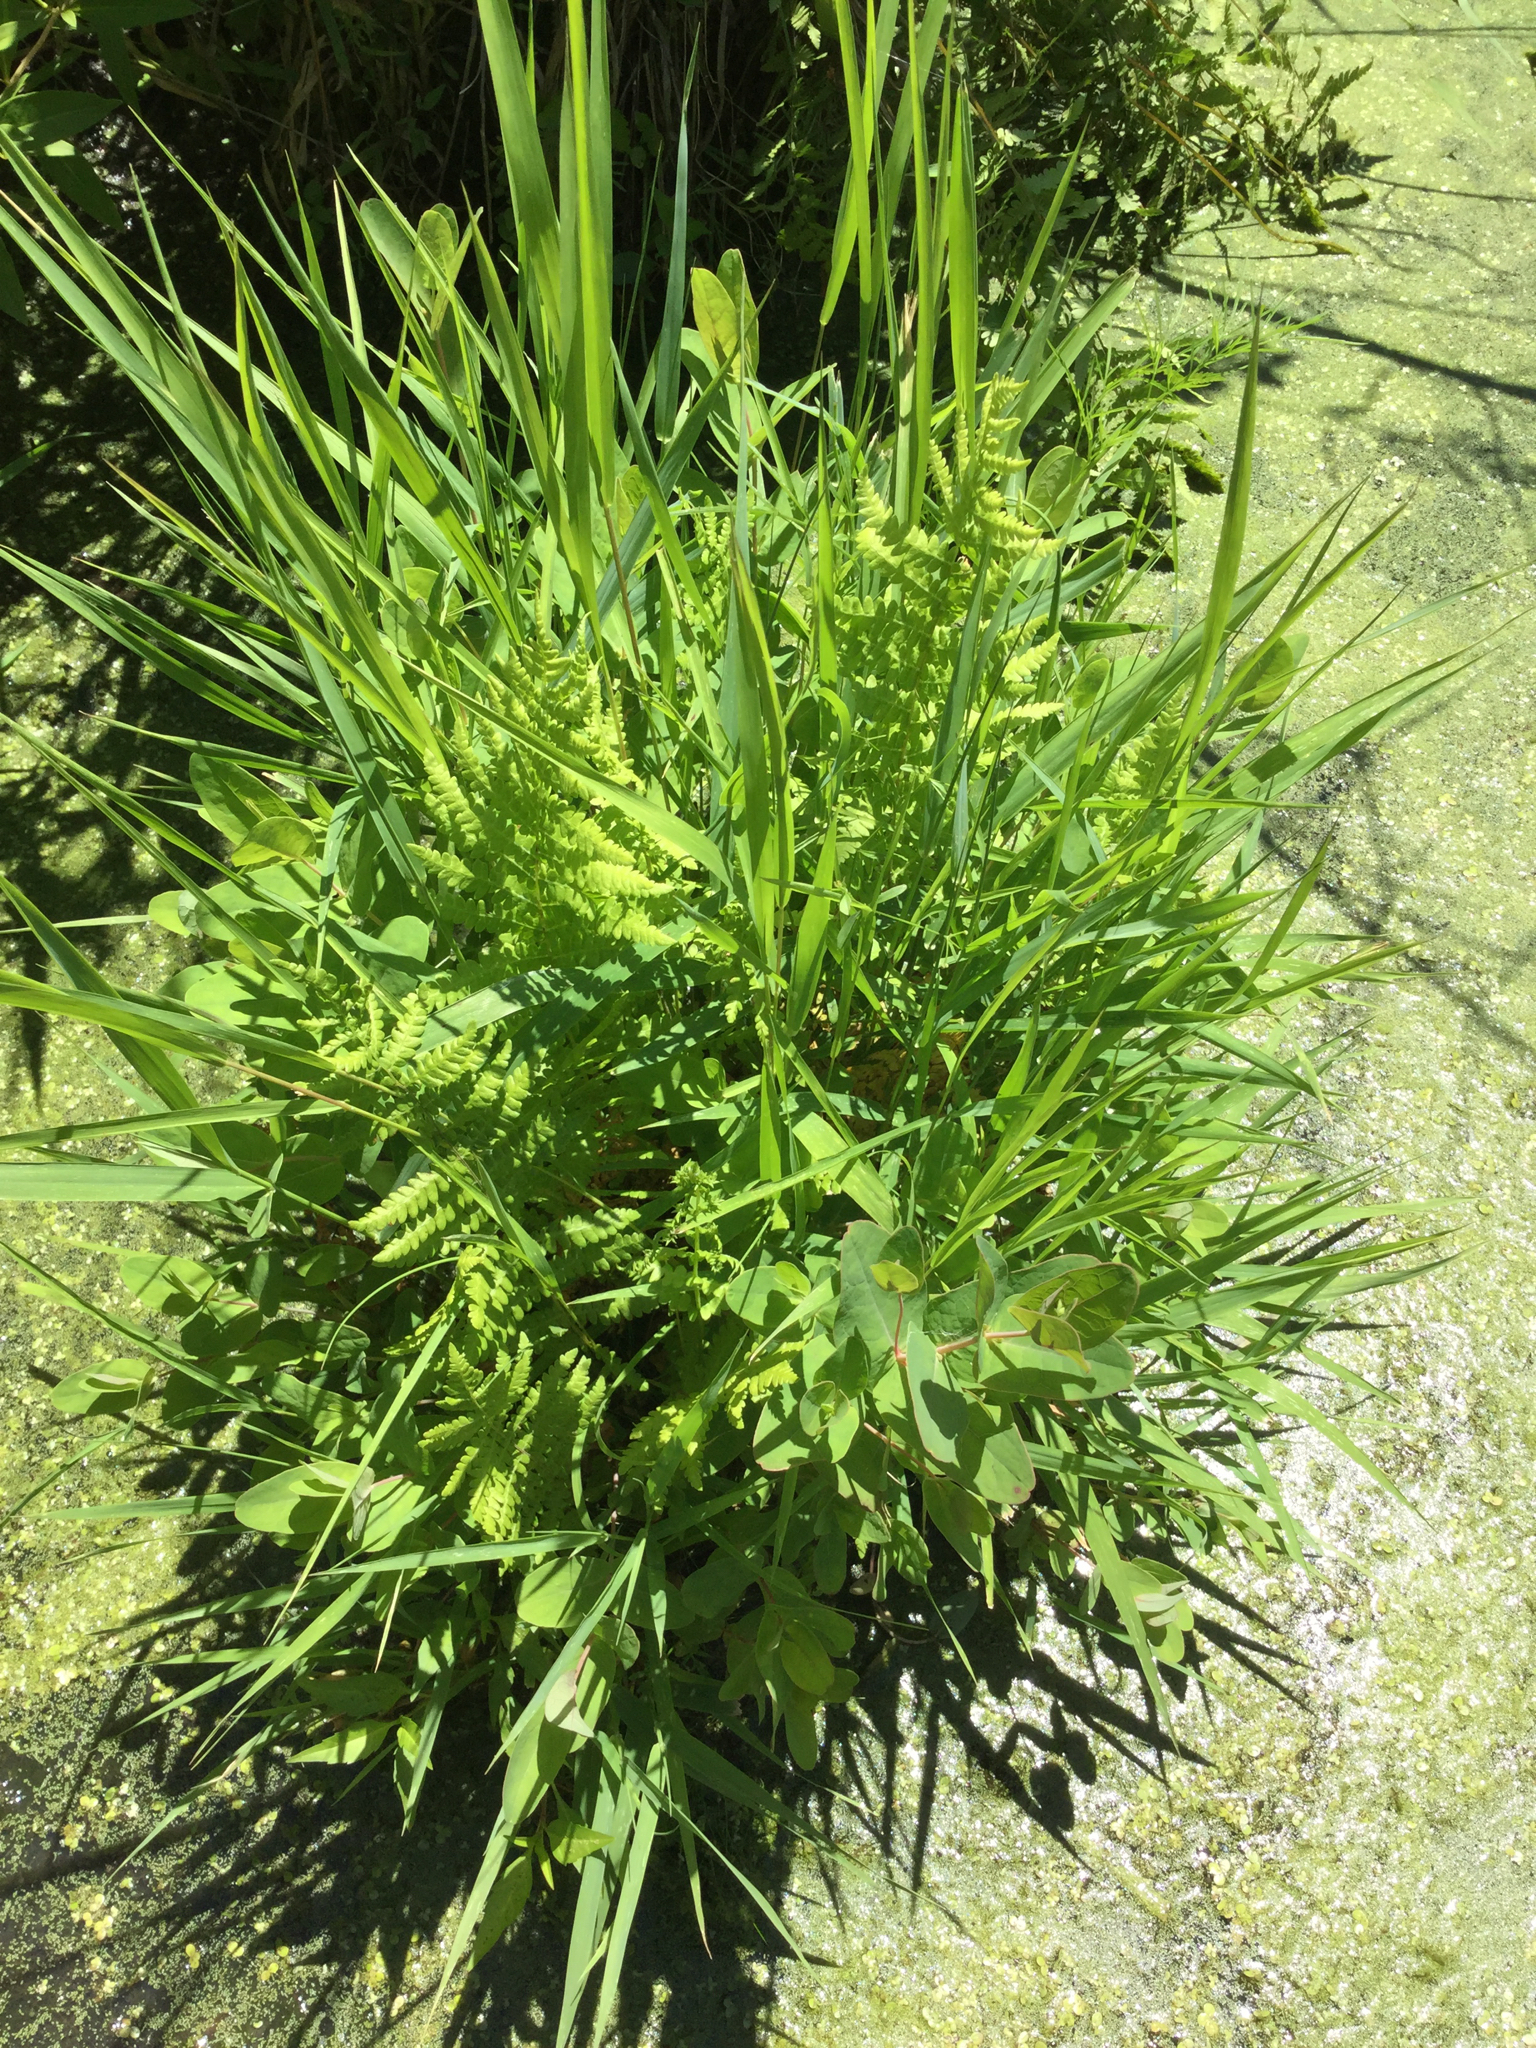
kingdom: Plantae
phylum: Tracheophyta
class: Polypodiopsida
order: Polypodiales
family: Thelypteridaceae
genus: Thelypteris
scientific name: Thelypteris palustris
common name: Marsh fern
